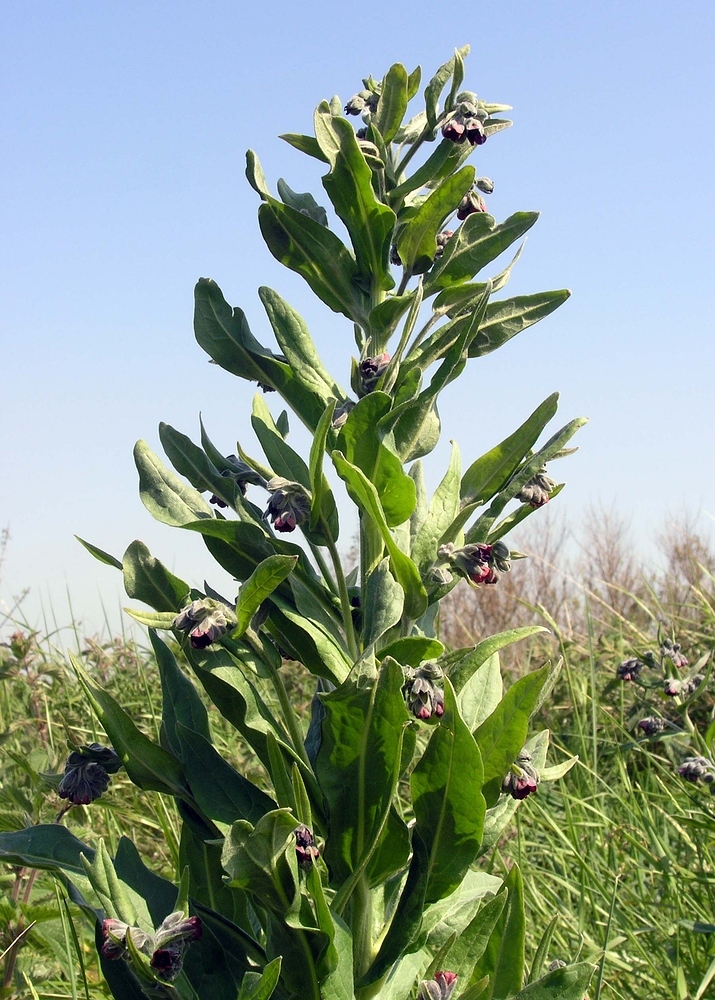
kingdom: Plantae
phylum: Tracheophyta
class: Magnoliopsida
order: Boraginales
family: Boraginaceae
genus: Cynoglossum
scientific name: Cynoglossum officinale
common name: Hound's-tongue
